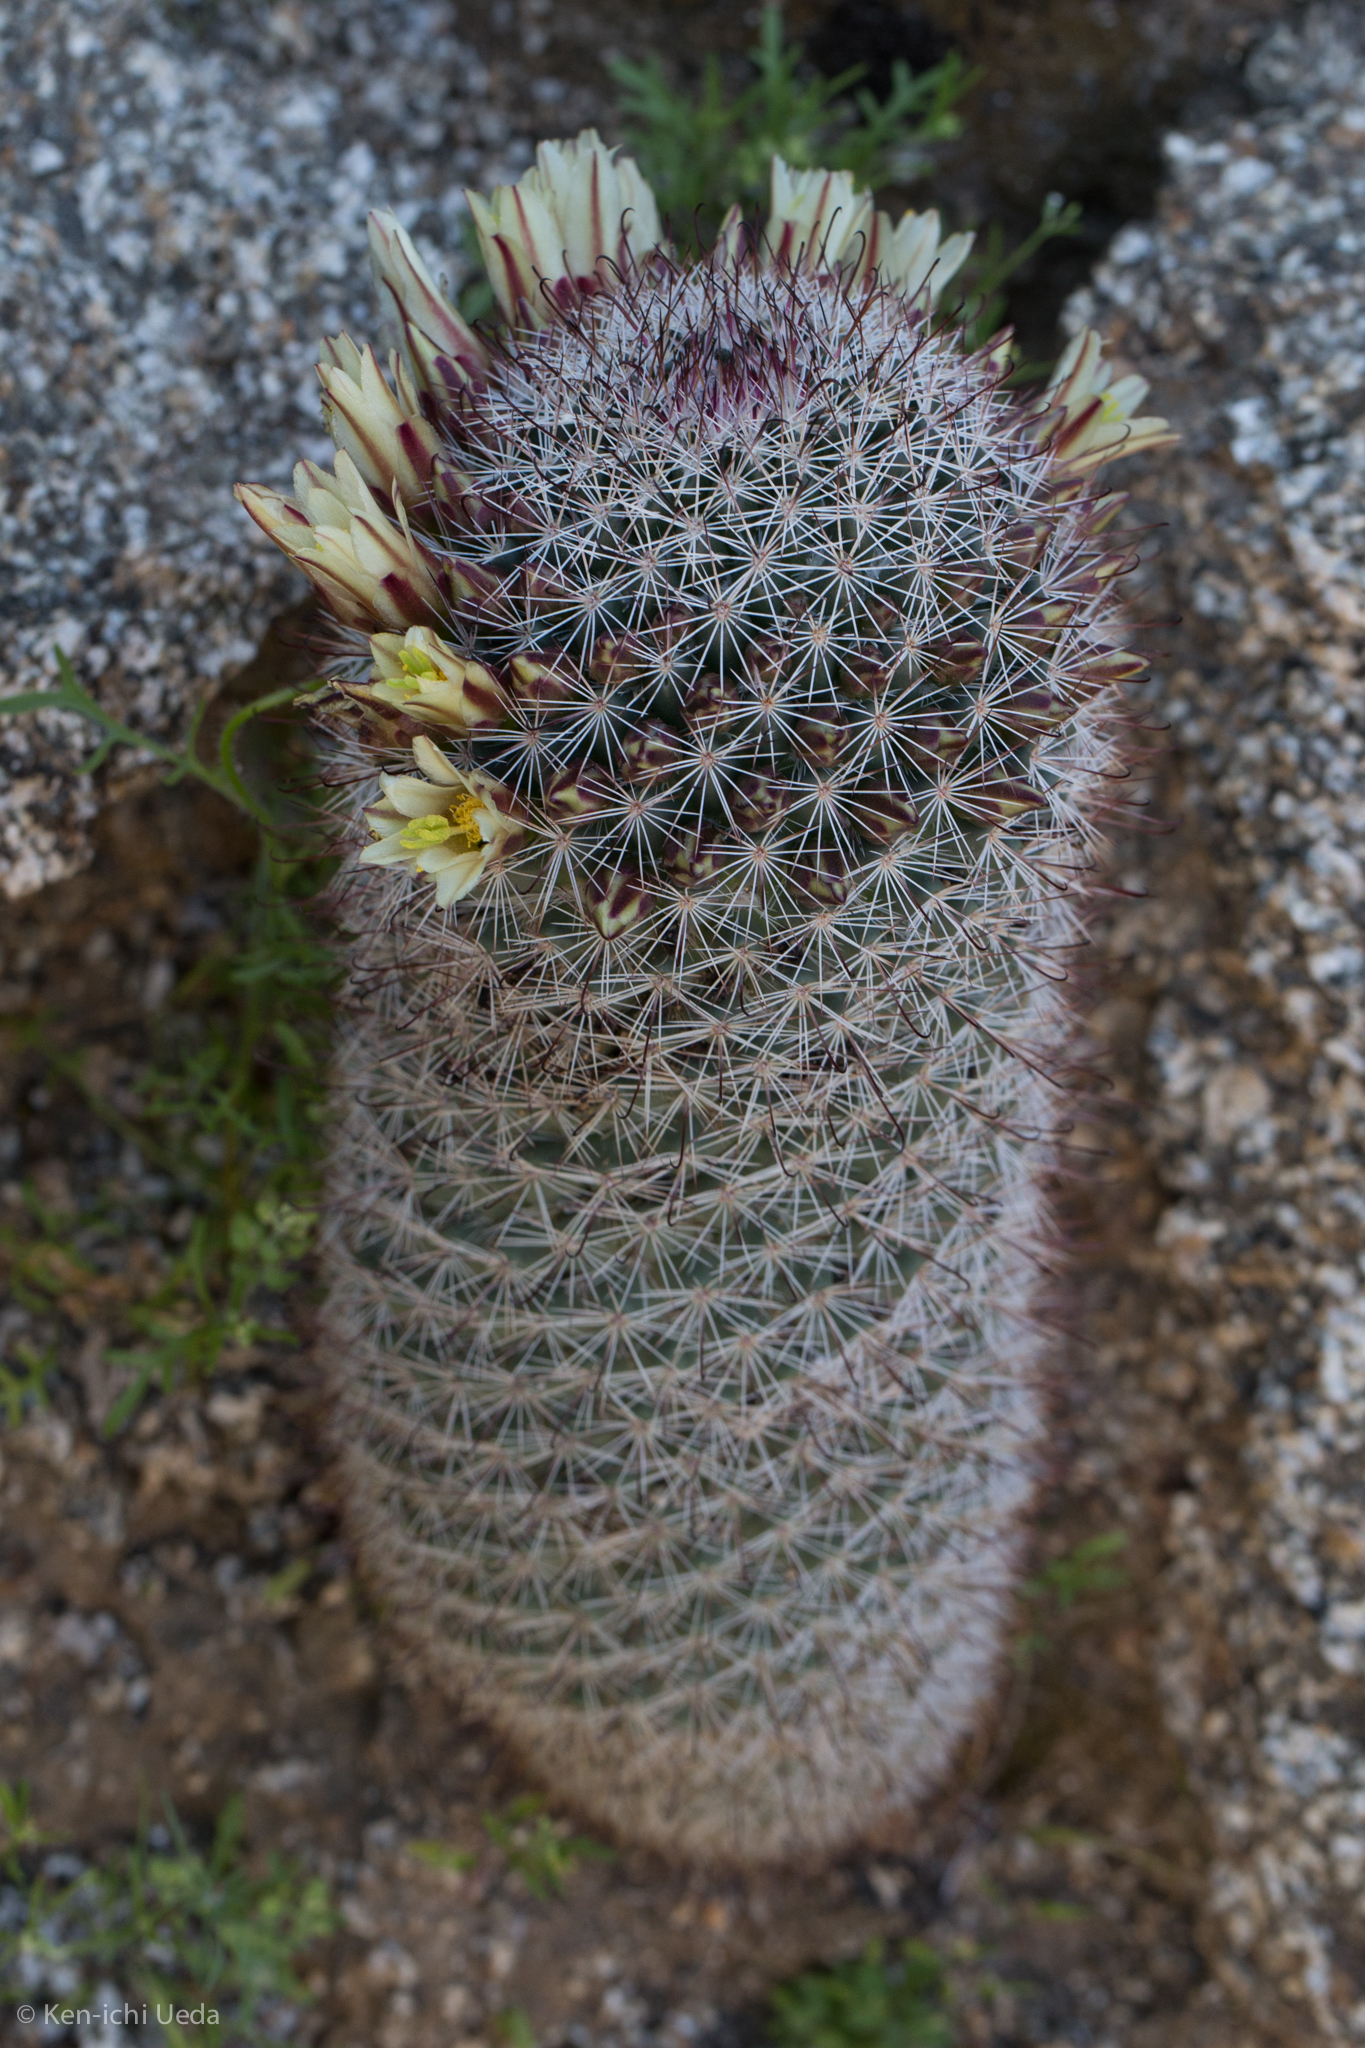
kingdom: Plantae
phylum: Tracheophyta
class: Magnoliopsida
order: Caryophyllales
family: Cactaceae
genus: Cochemiea
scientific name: Cochemiea dioica
